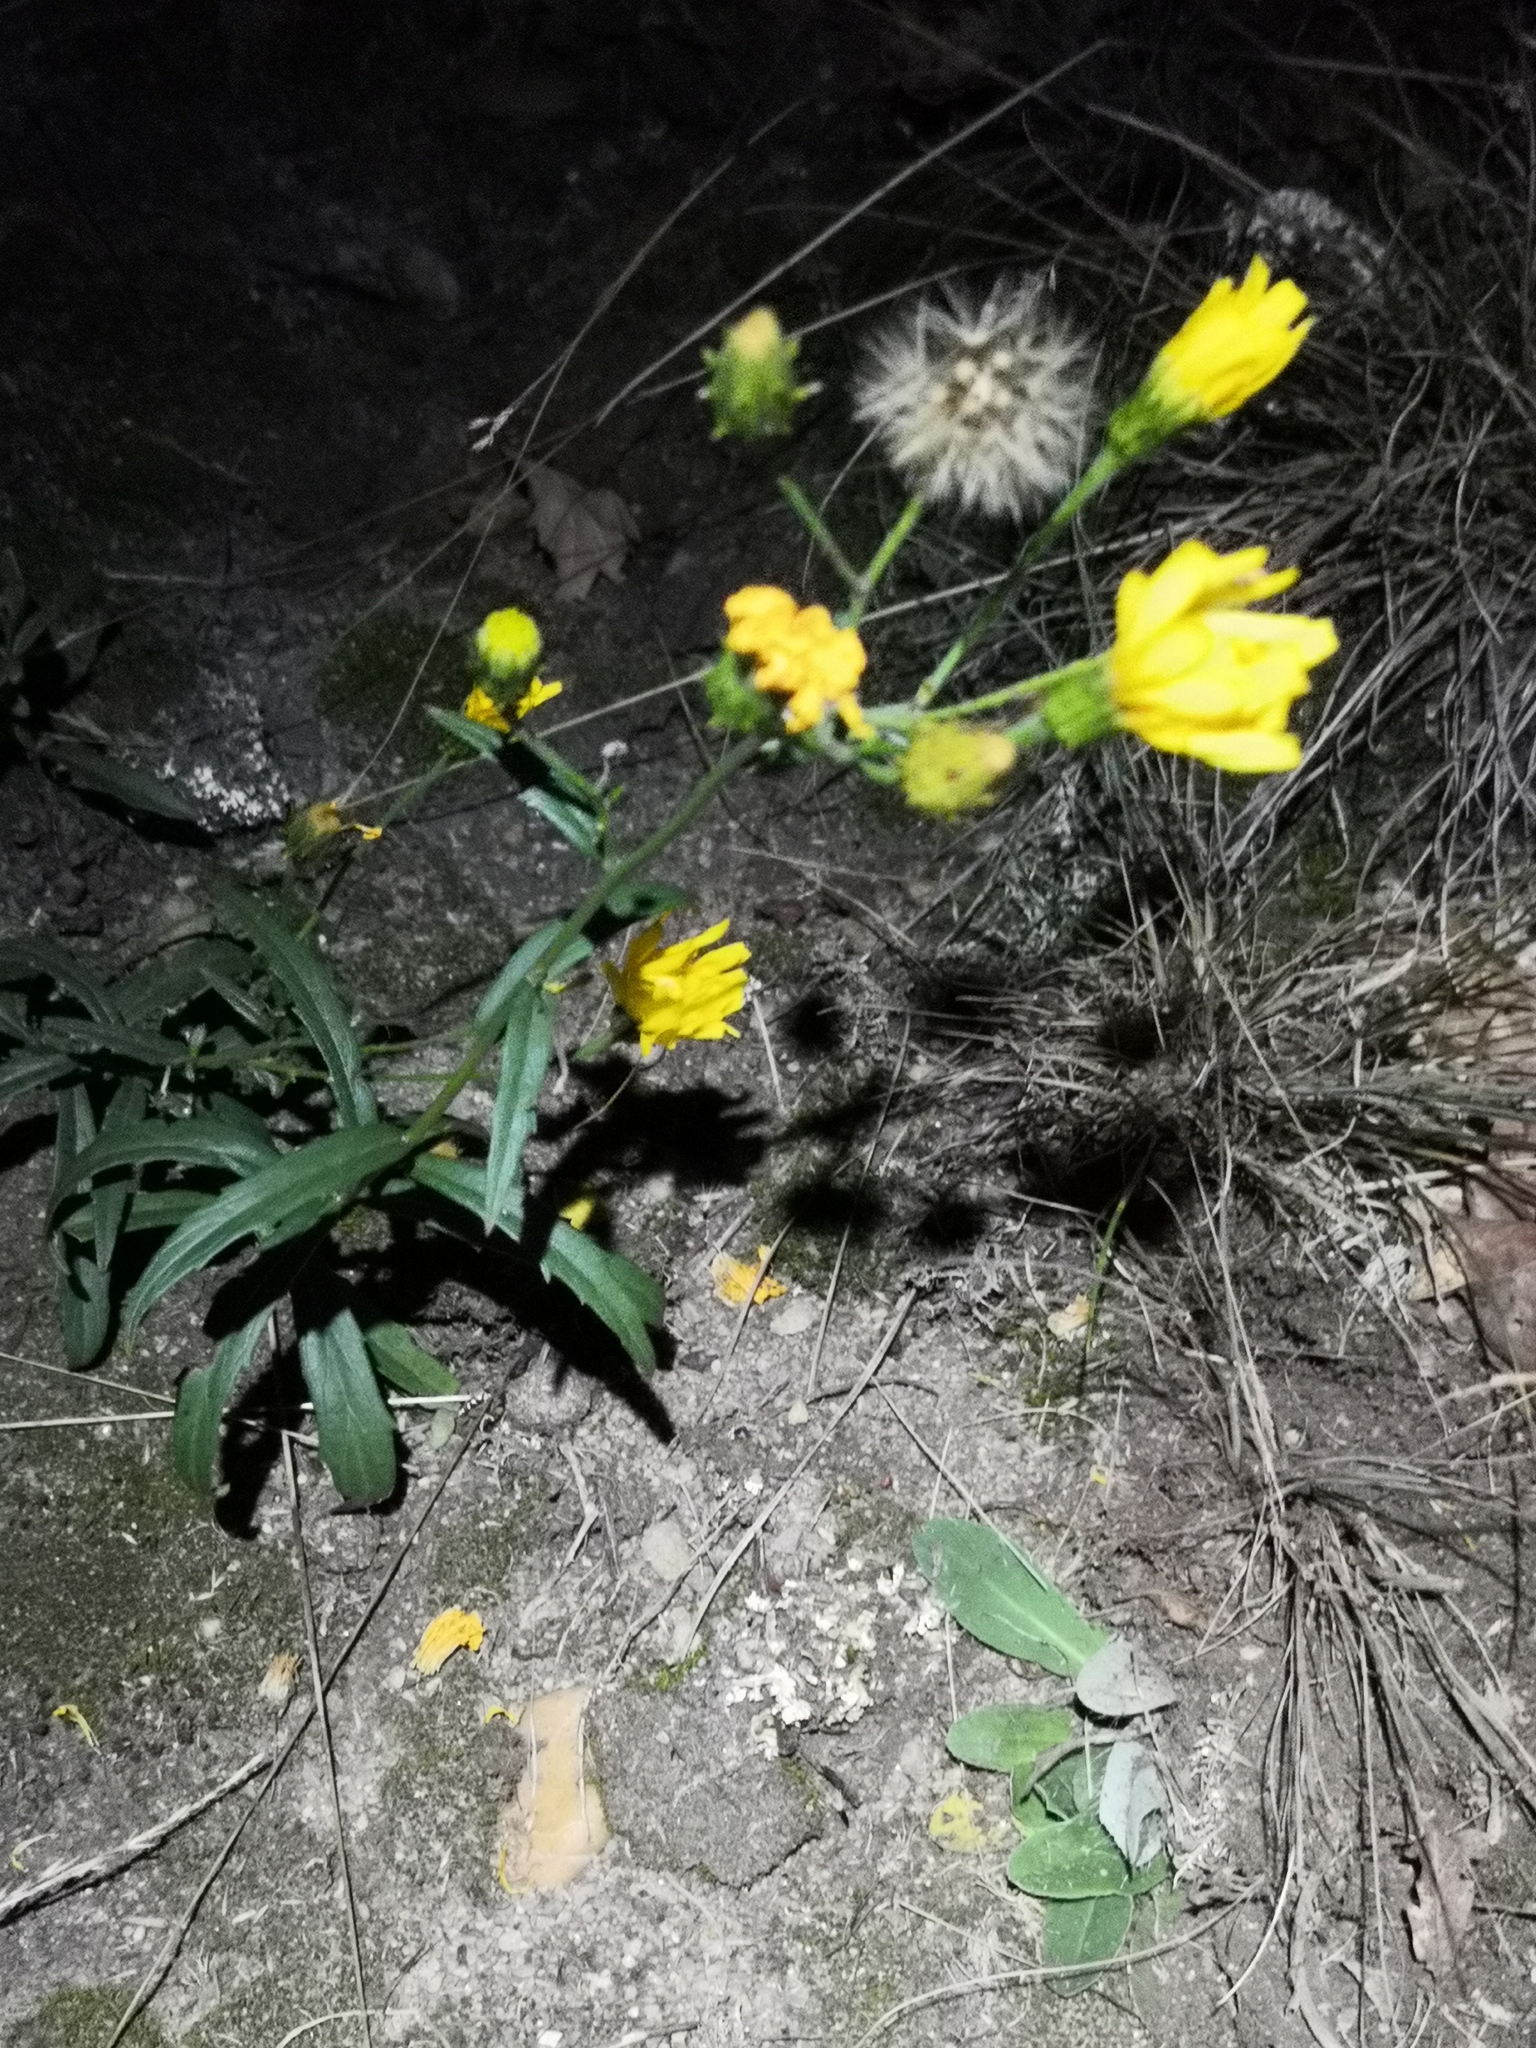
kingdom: Plantae
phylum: Tracheophyta
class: Magnoliopsida
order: Asterales
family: Asteraceae
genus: Hieracium
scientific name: Hieracium umbellatum
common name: Northern hawkweed
